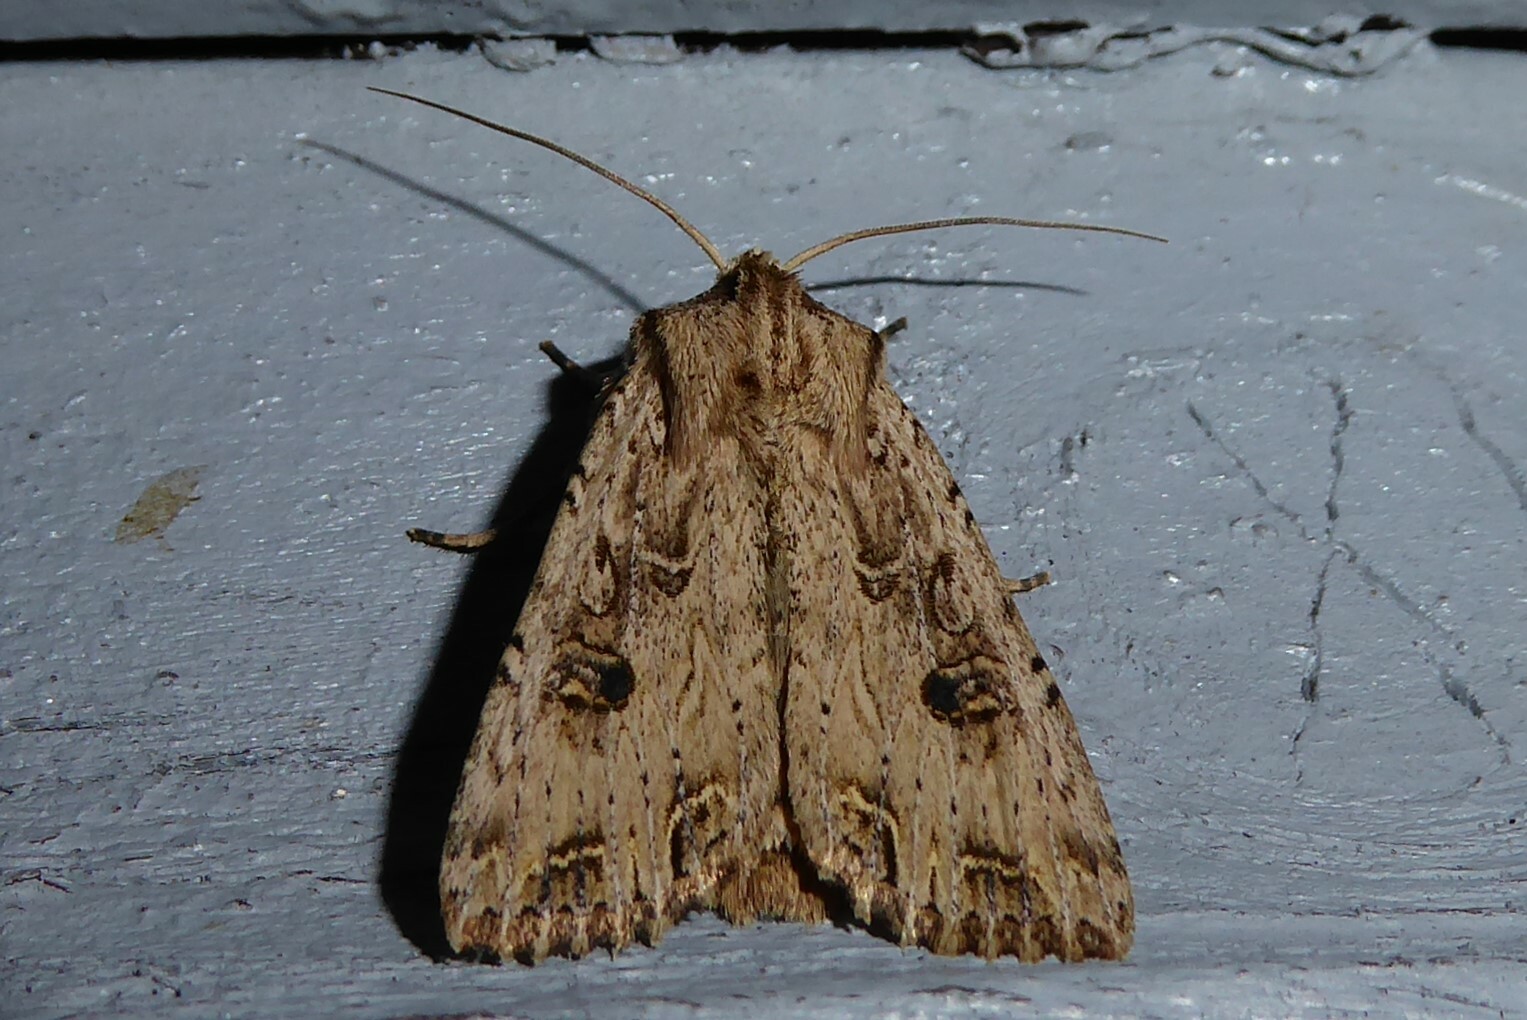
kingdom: Animalia
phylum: Arthropoda
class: Insecta
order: Lepidoptera
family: Noctuidae
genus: Ichneutica
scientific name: Ichneutica lignana
